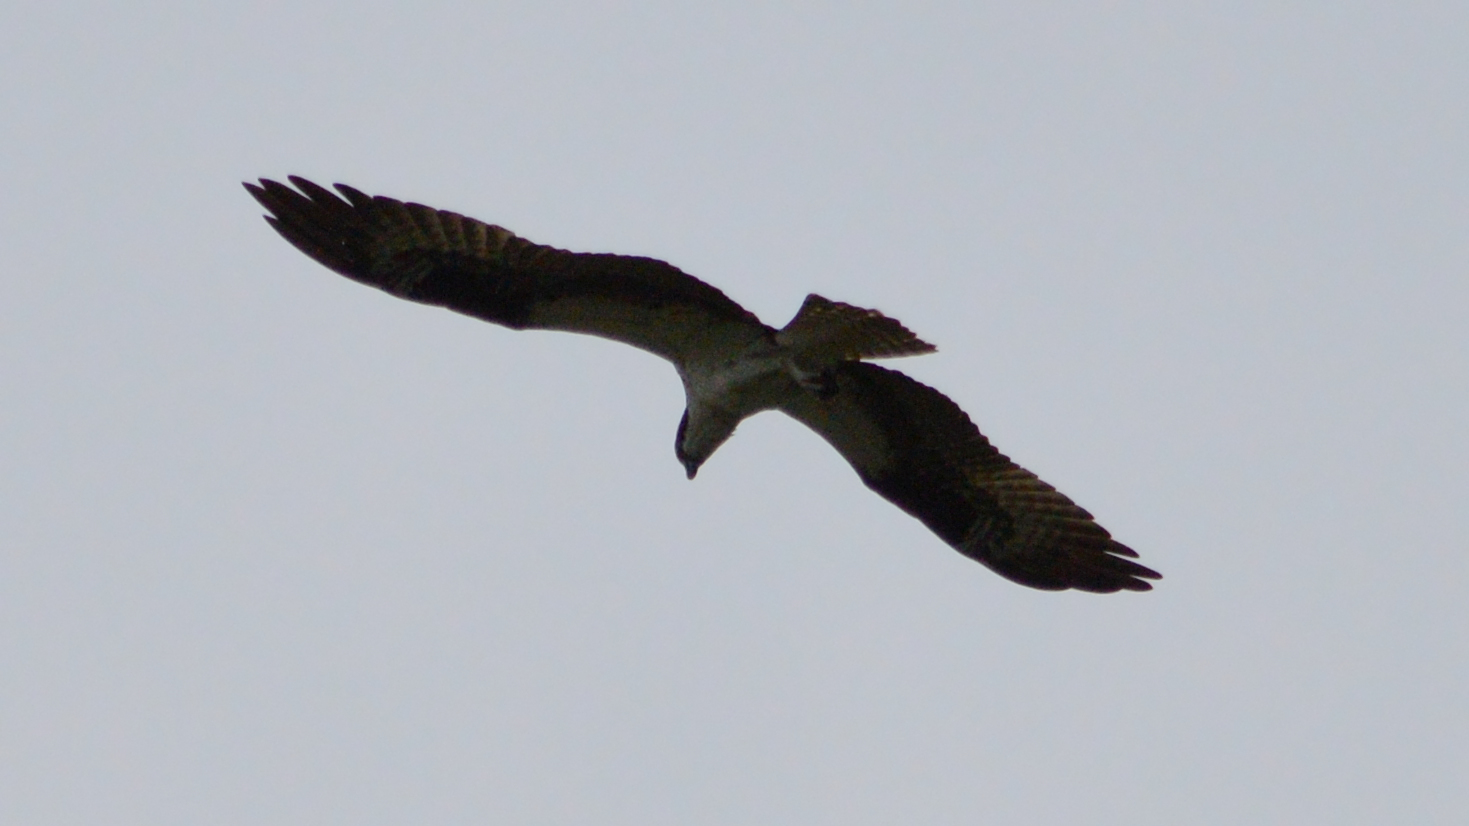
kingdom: Animalia
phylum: Chordata
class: Aves
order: Accipitriformes
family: Pandionidae
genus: Pandion
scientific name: Pandion haliaetus
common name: Osprey
